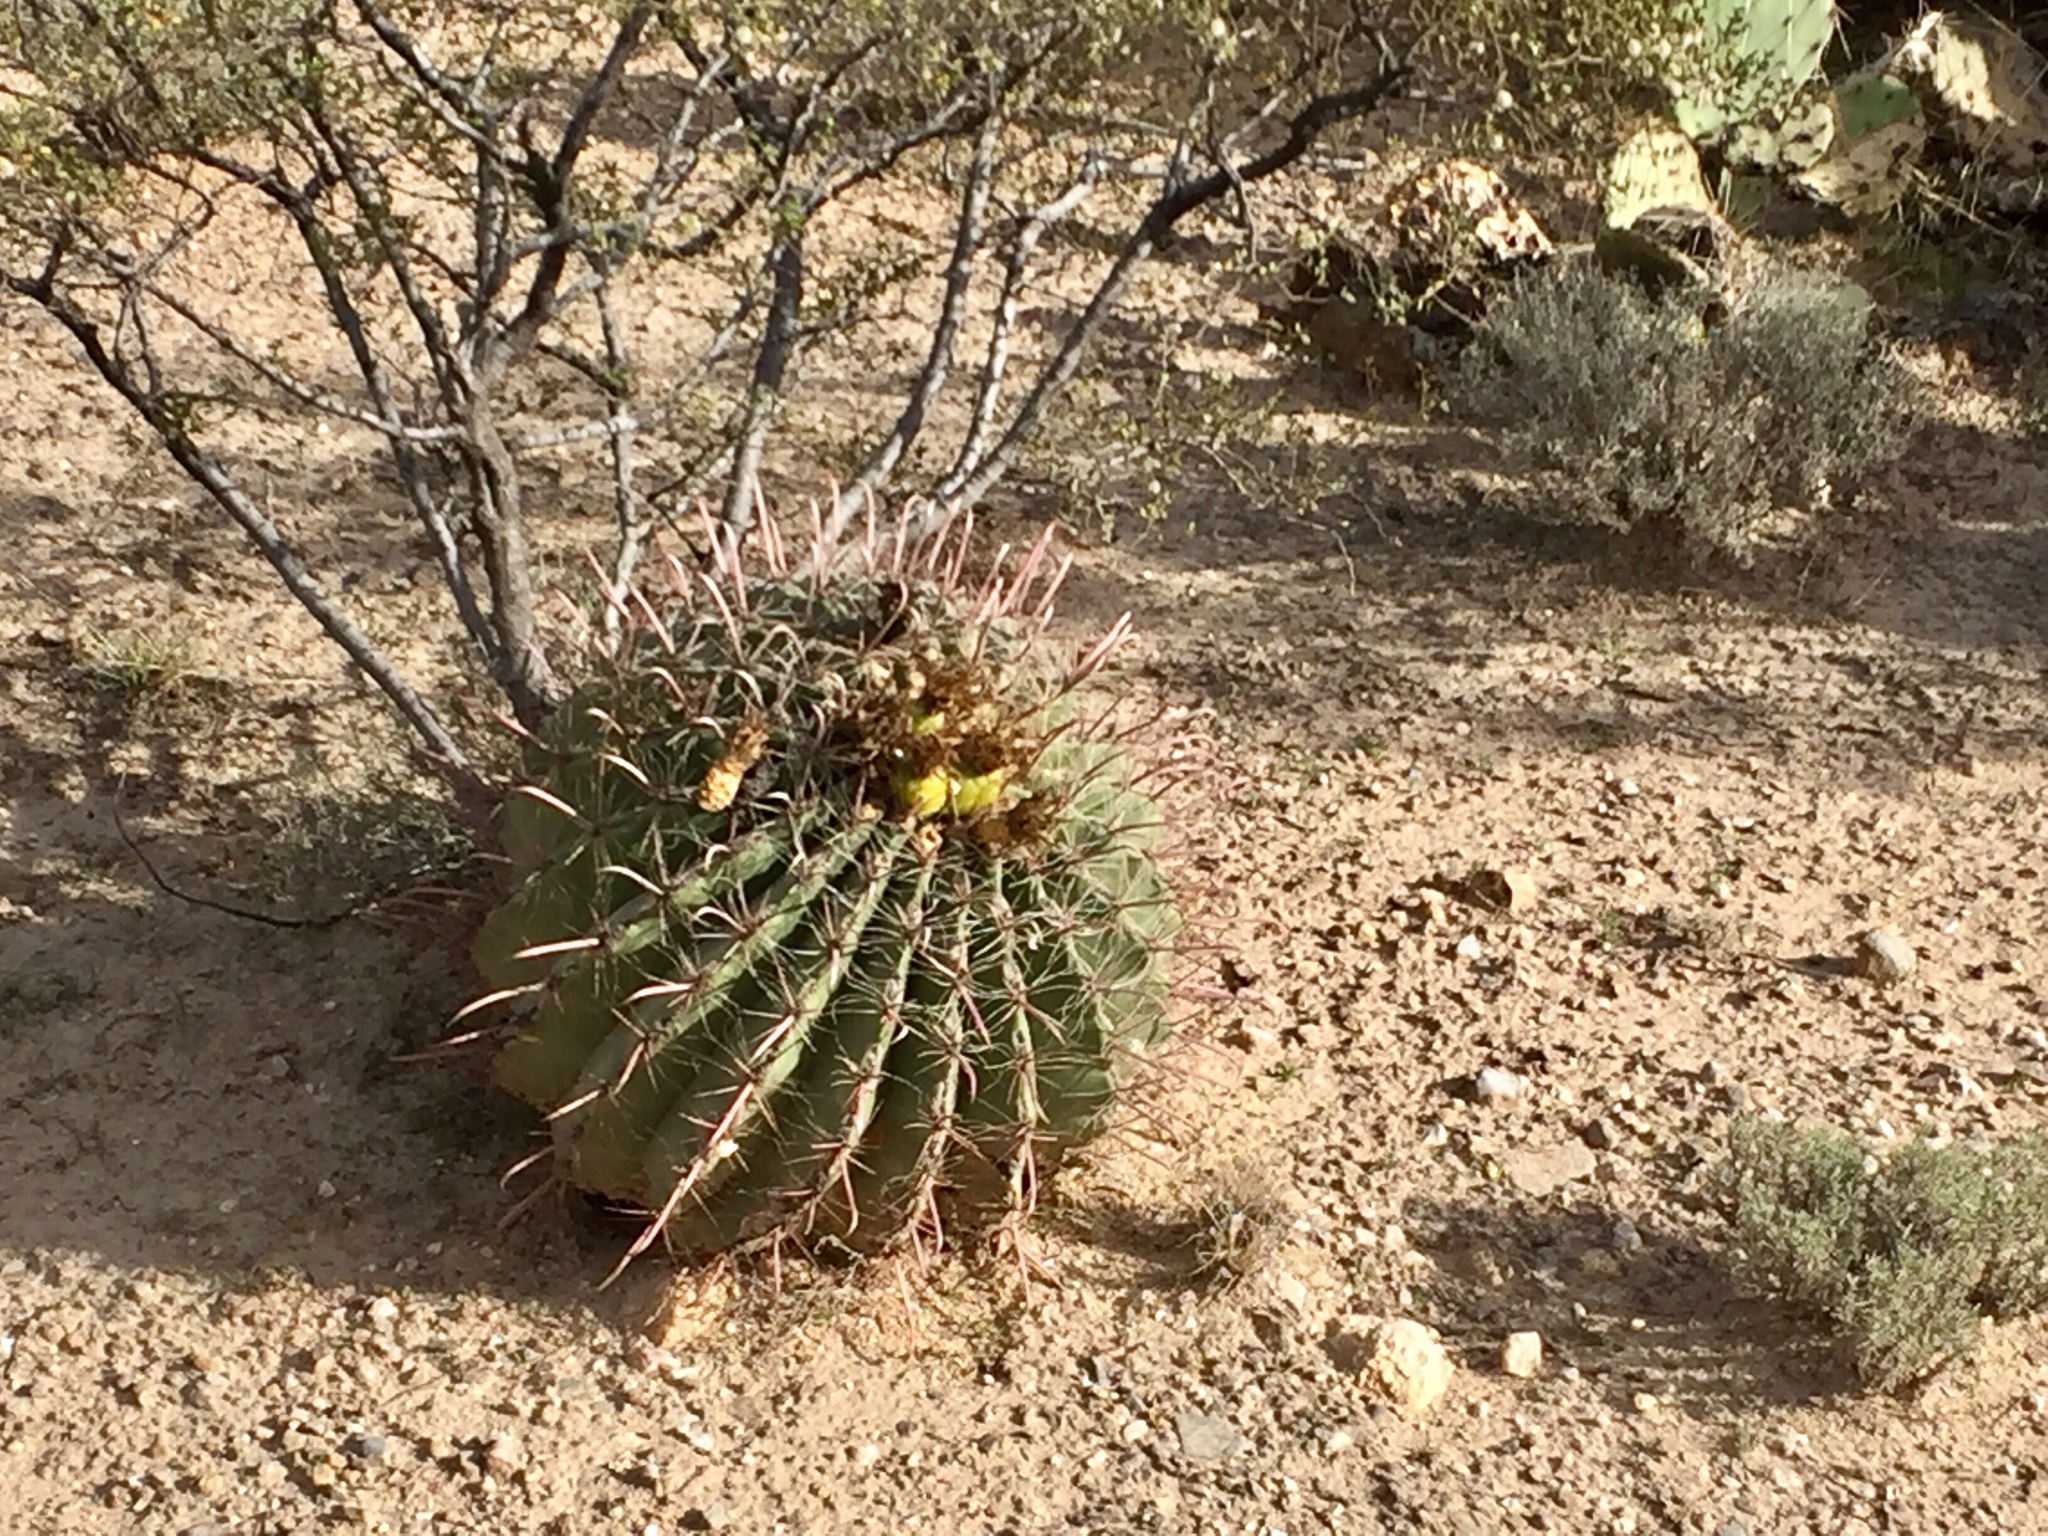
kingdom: Plantae
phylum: Tracheophyta
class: Magnoliopsida
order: Caryophyllales
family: Cactaceae
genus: Ferocactus
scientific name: Ferocactus wislizeni
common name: Candy barrel cactus
